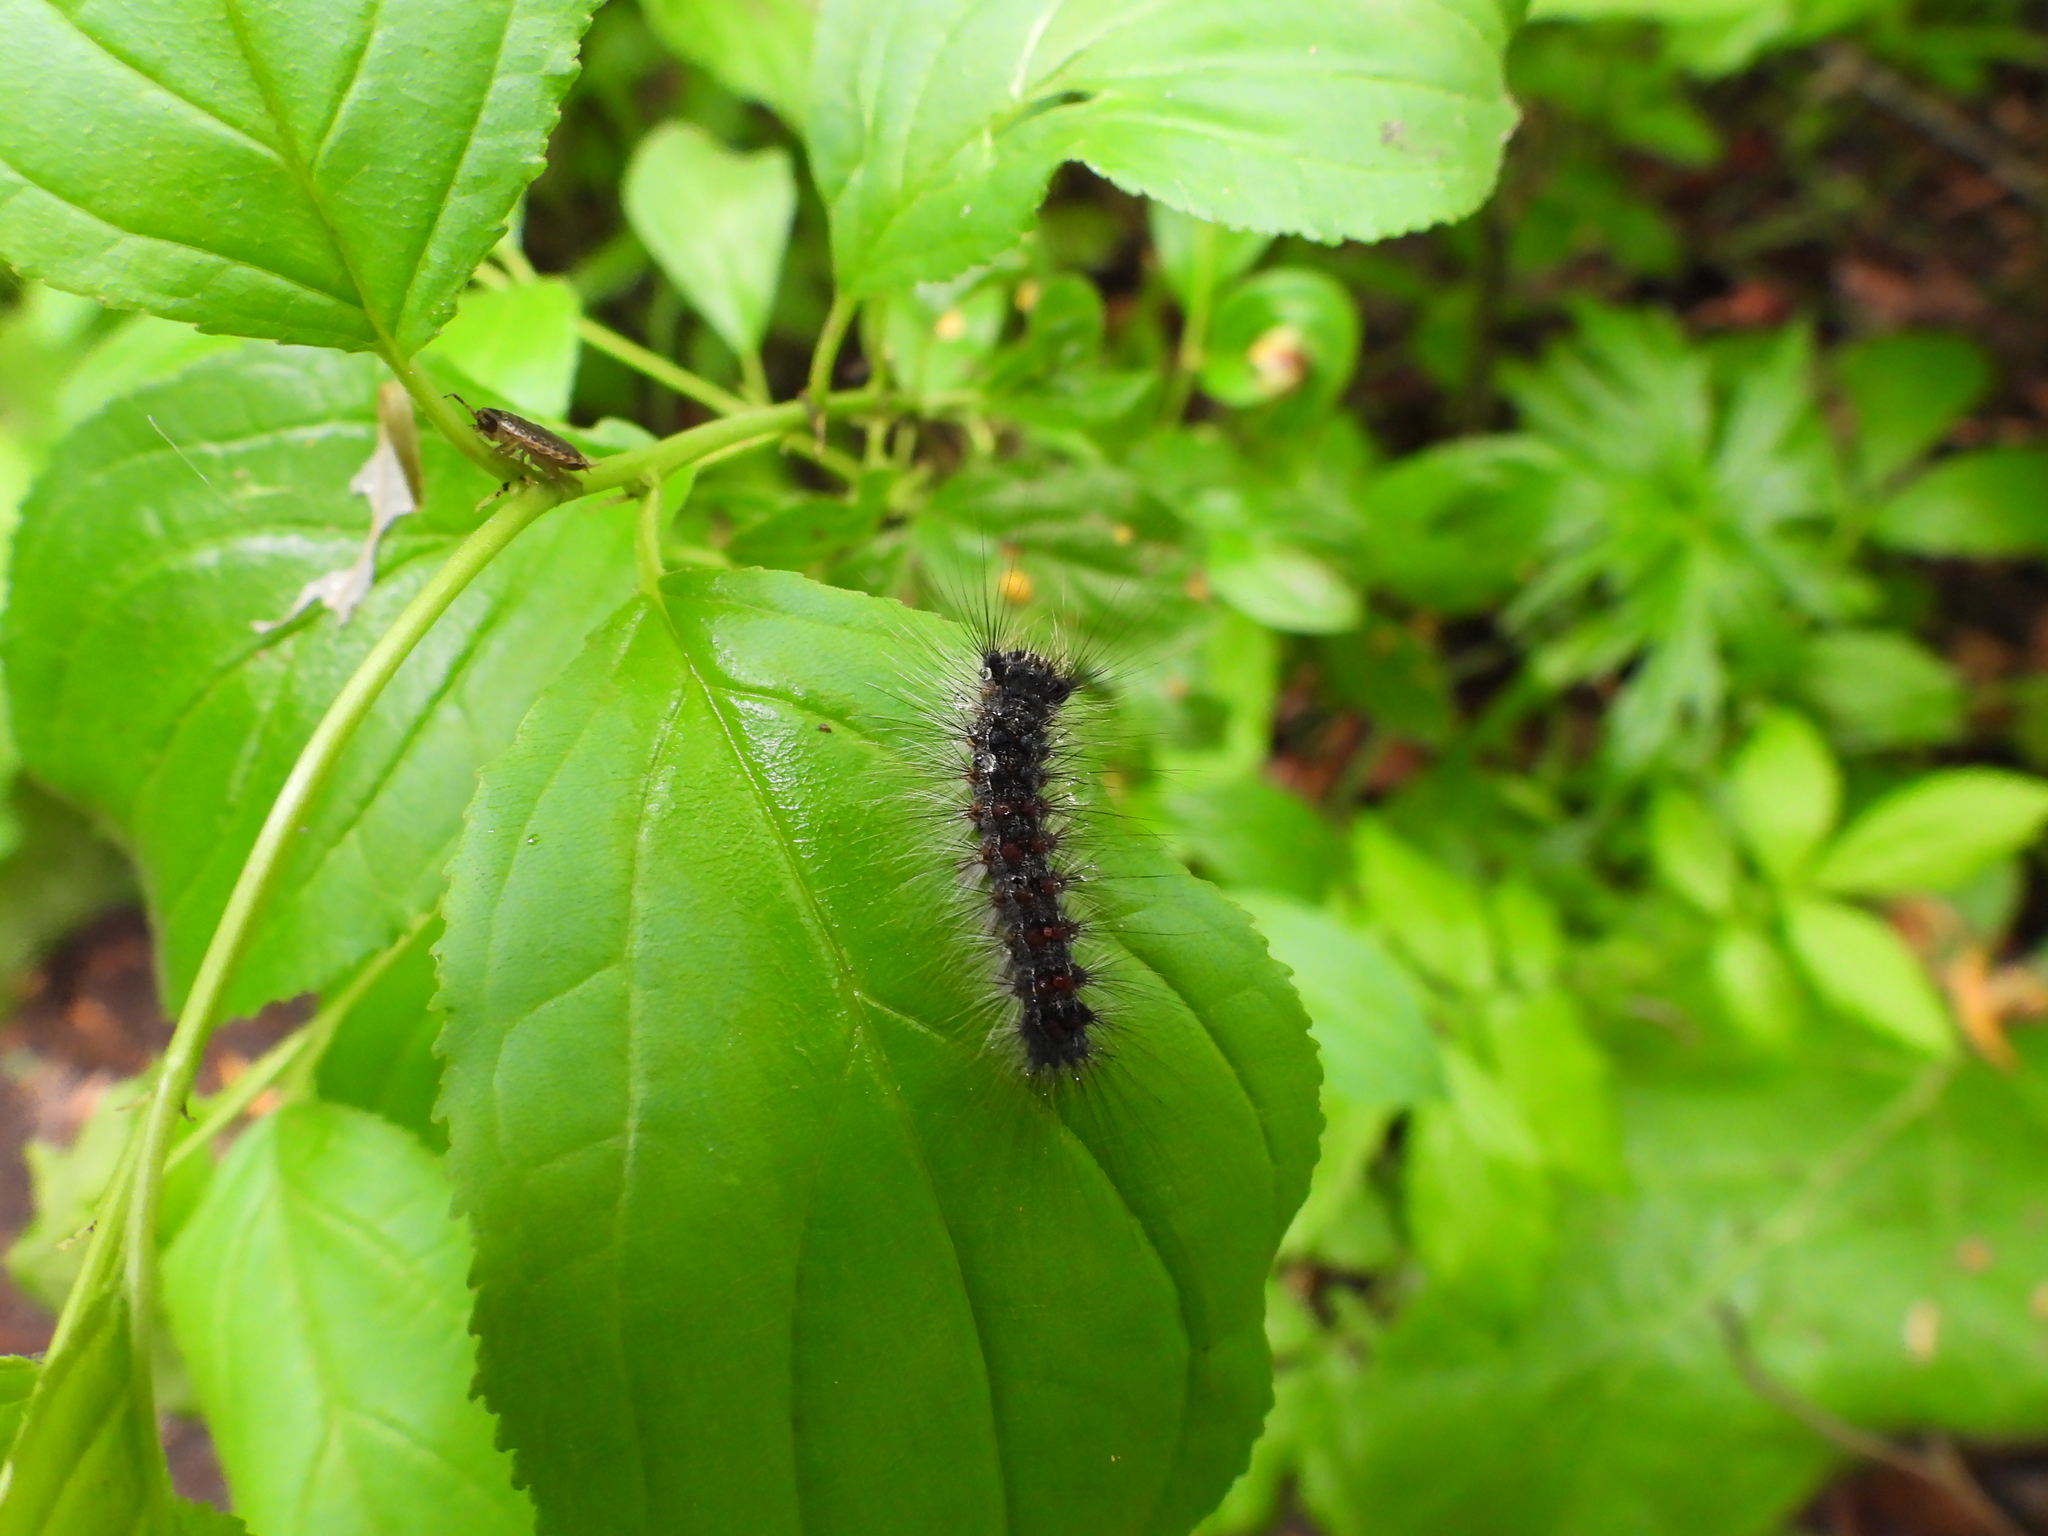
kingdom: Animalia
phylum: Arthropoda
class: Insecta
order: Lepidoptera
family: Erebidae
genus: Lymantria
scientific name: Lymantria dispar
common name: Gypsy moth
